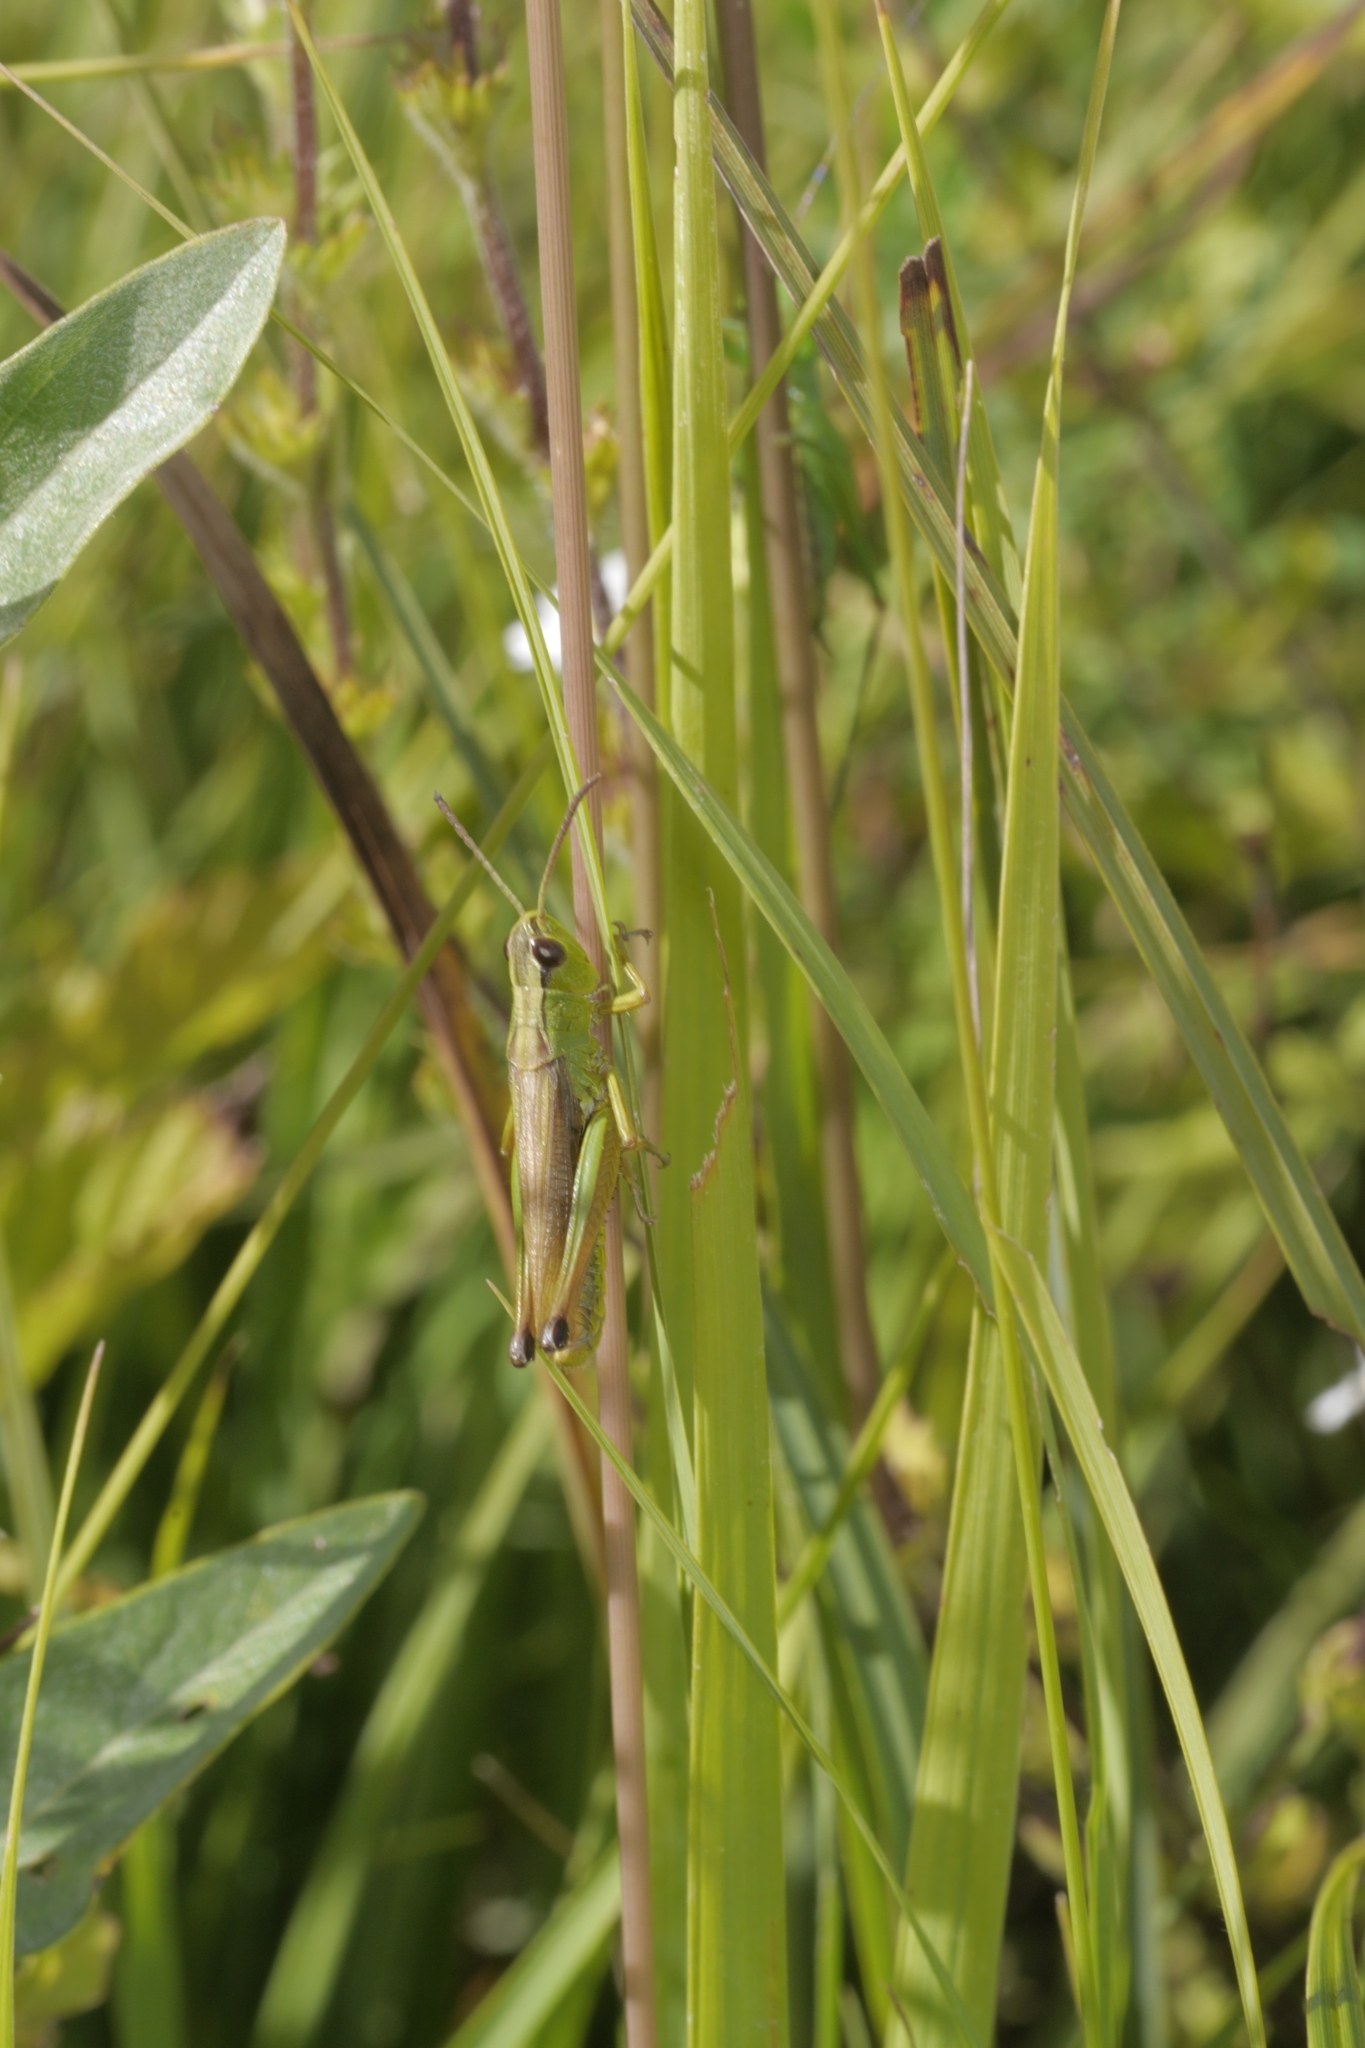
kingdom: Animalia
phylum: Arthropoda
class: Insecta
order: Orthoptera
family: Acrididae
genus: Pseudochorthippus
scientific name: Pseudochorthippus montanus
